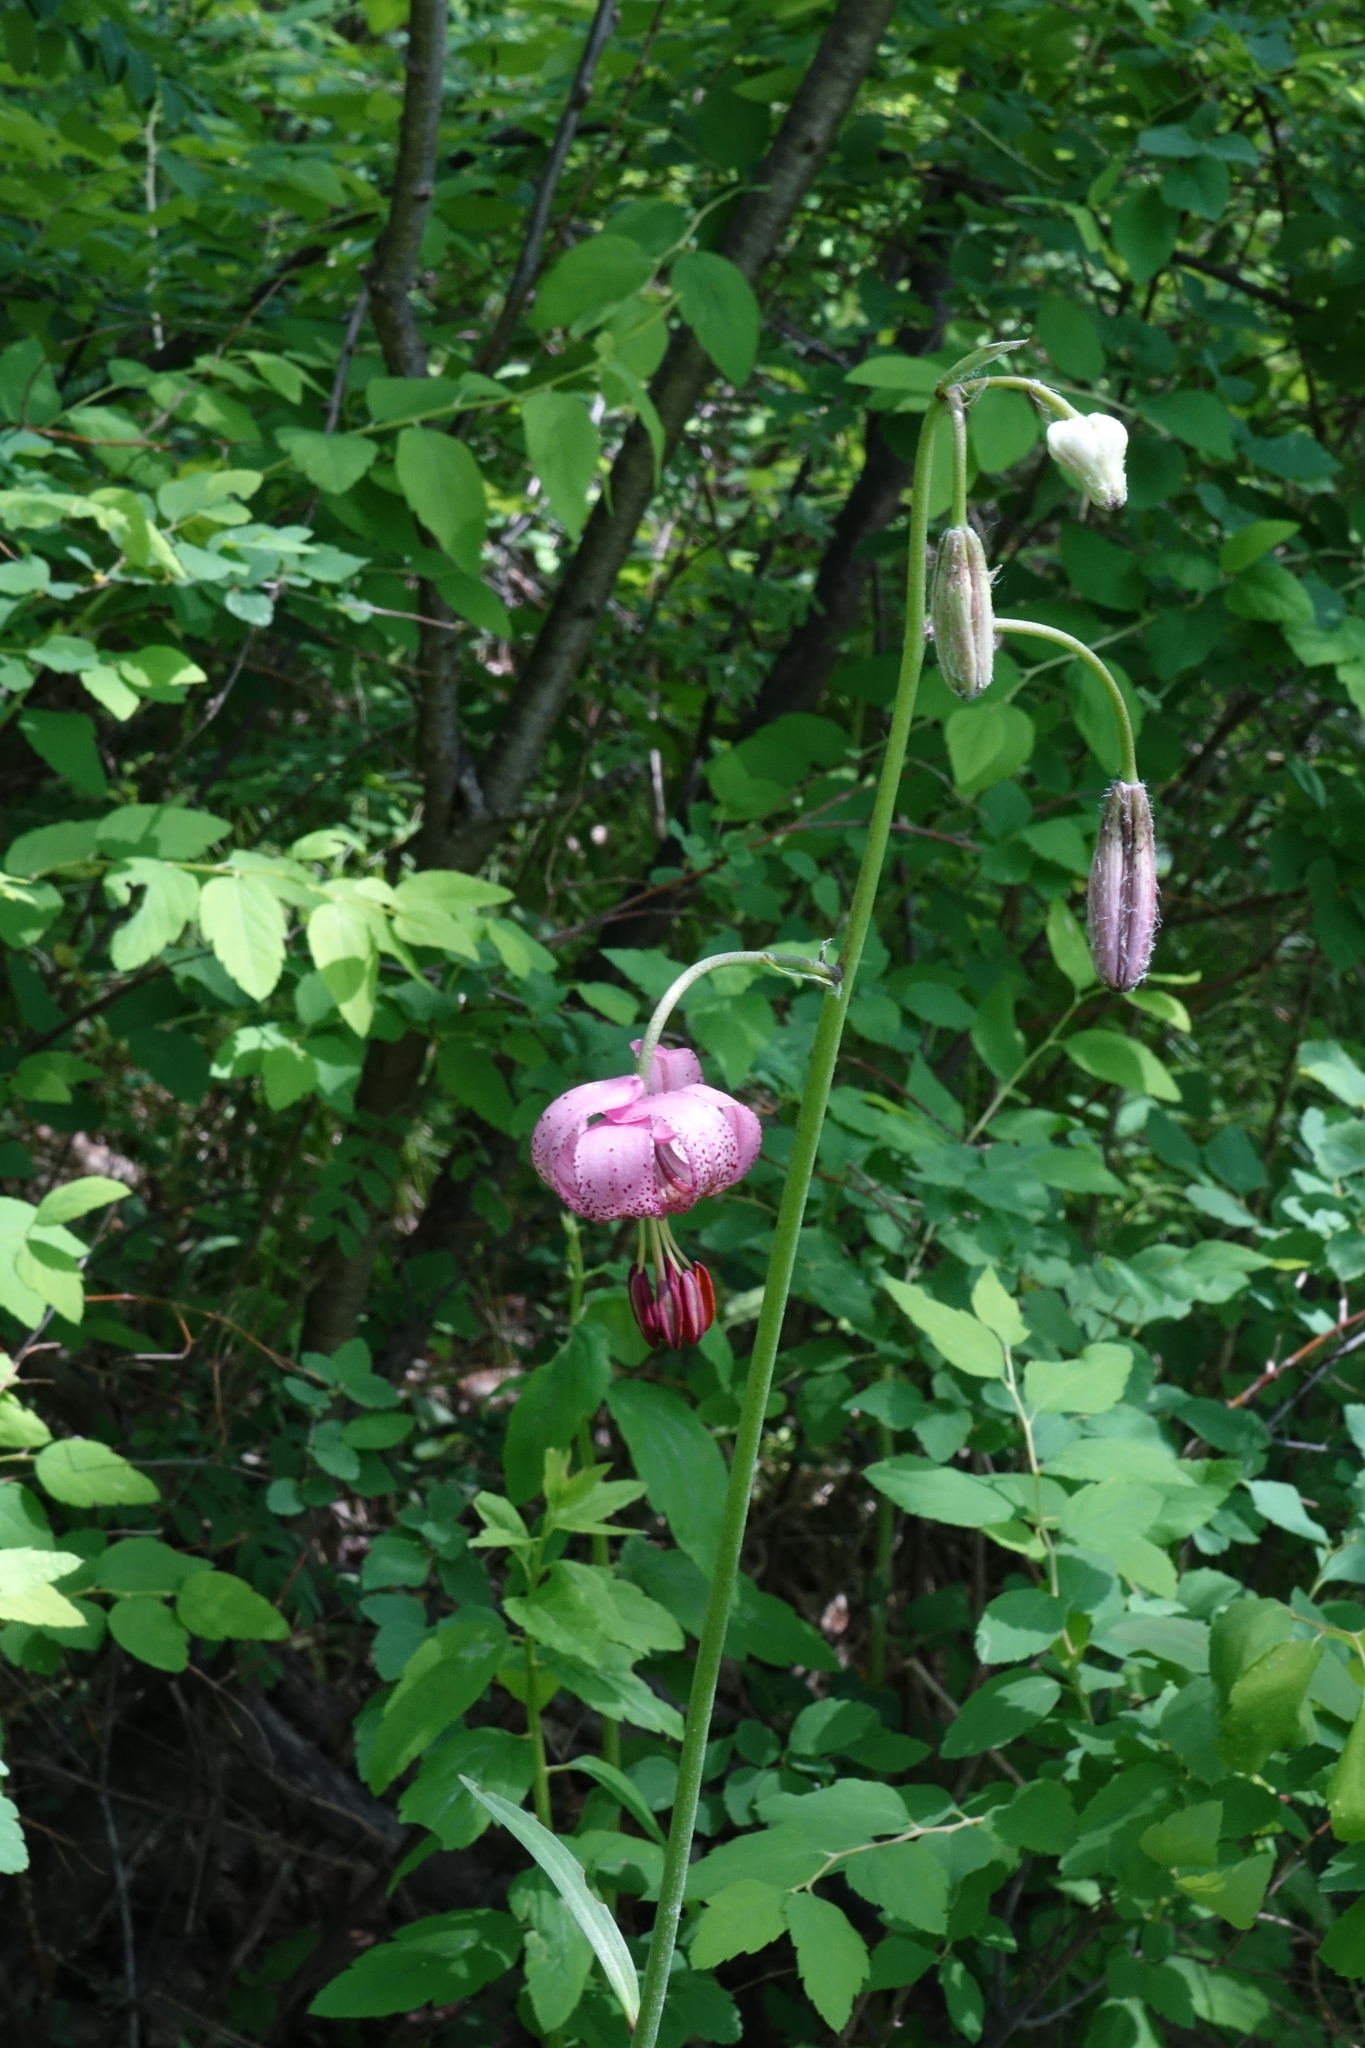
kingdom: Plantae
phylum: Tracheophyta
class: Liliopsida
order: Liliales
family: Liliaceae
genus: Lilium
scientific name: Lilium martagon
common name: Martagon lily
